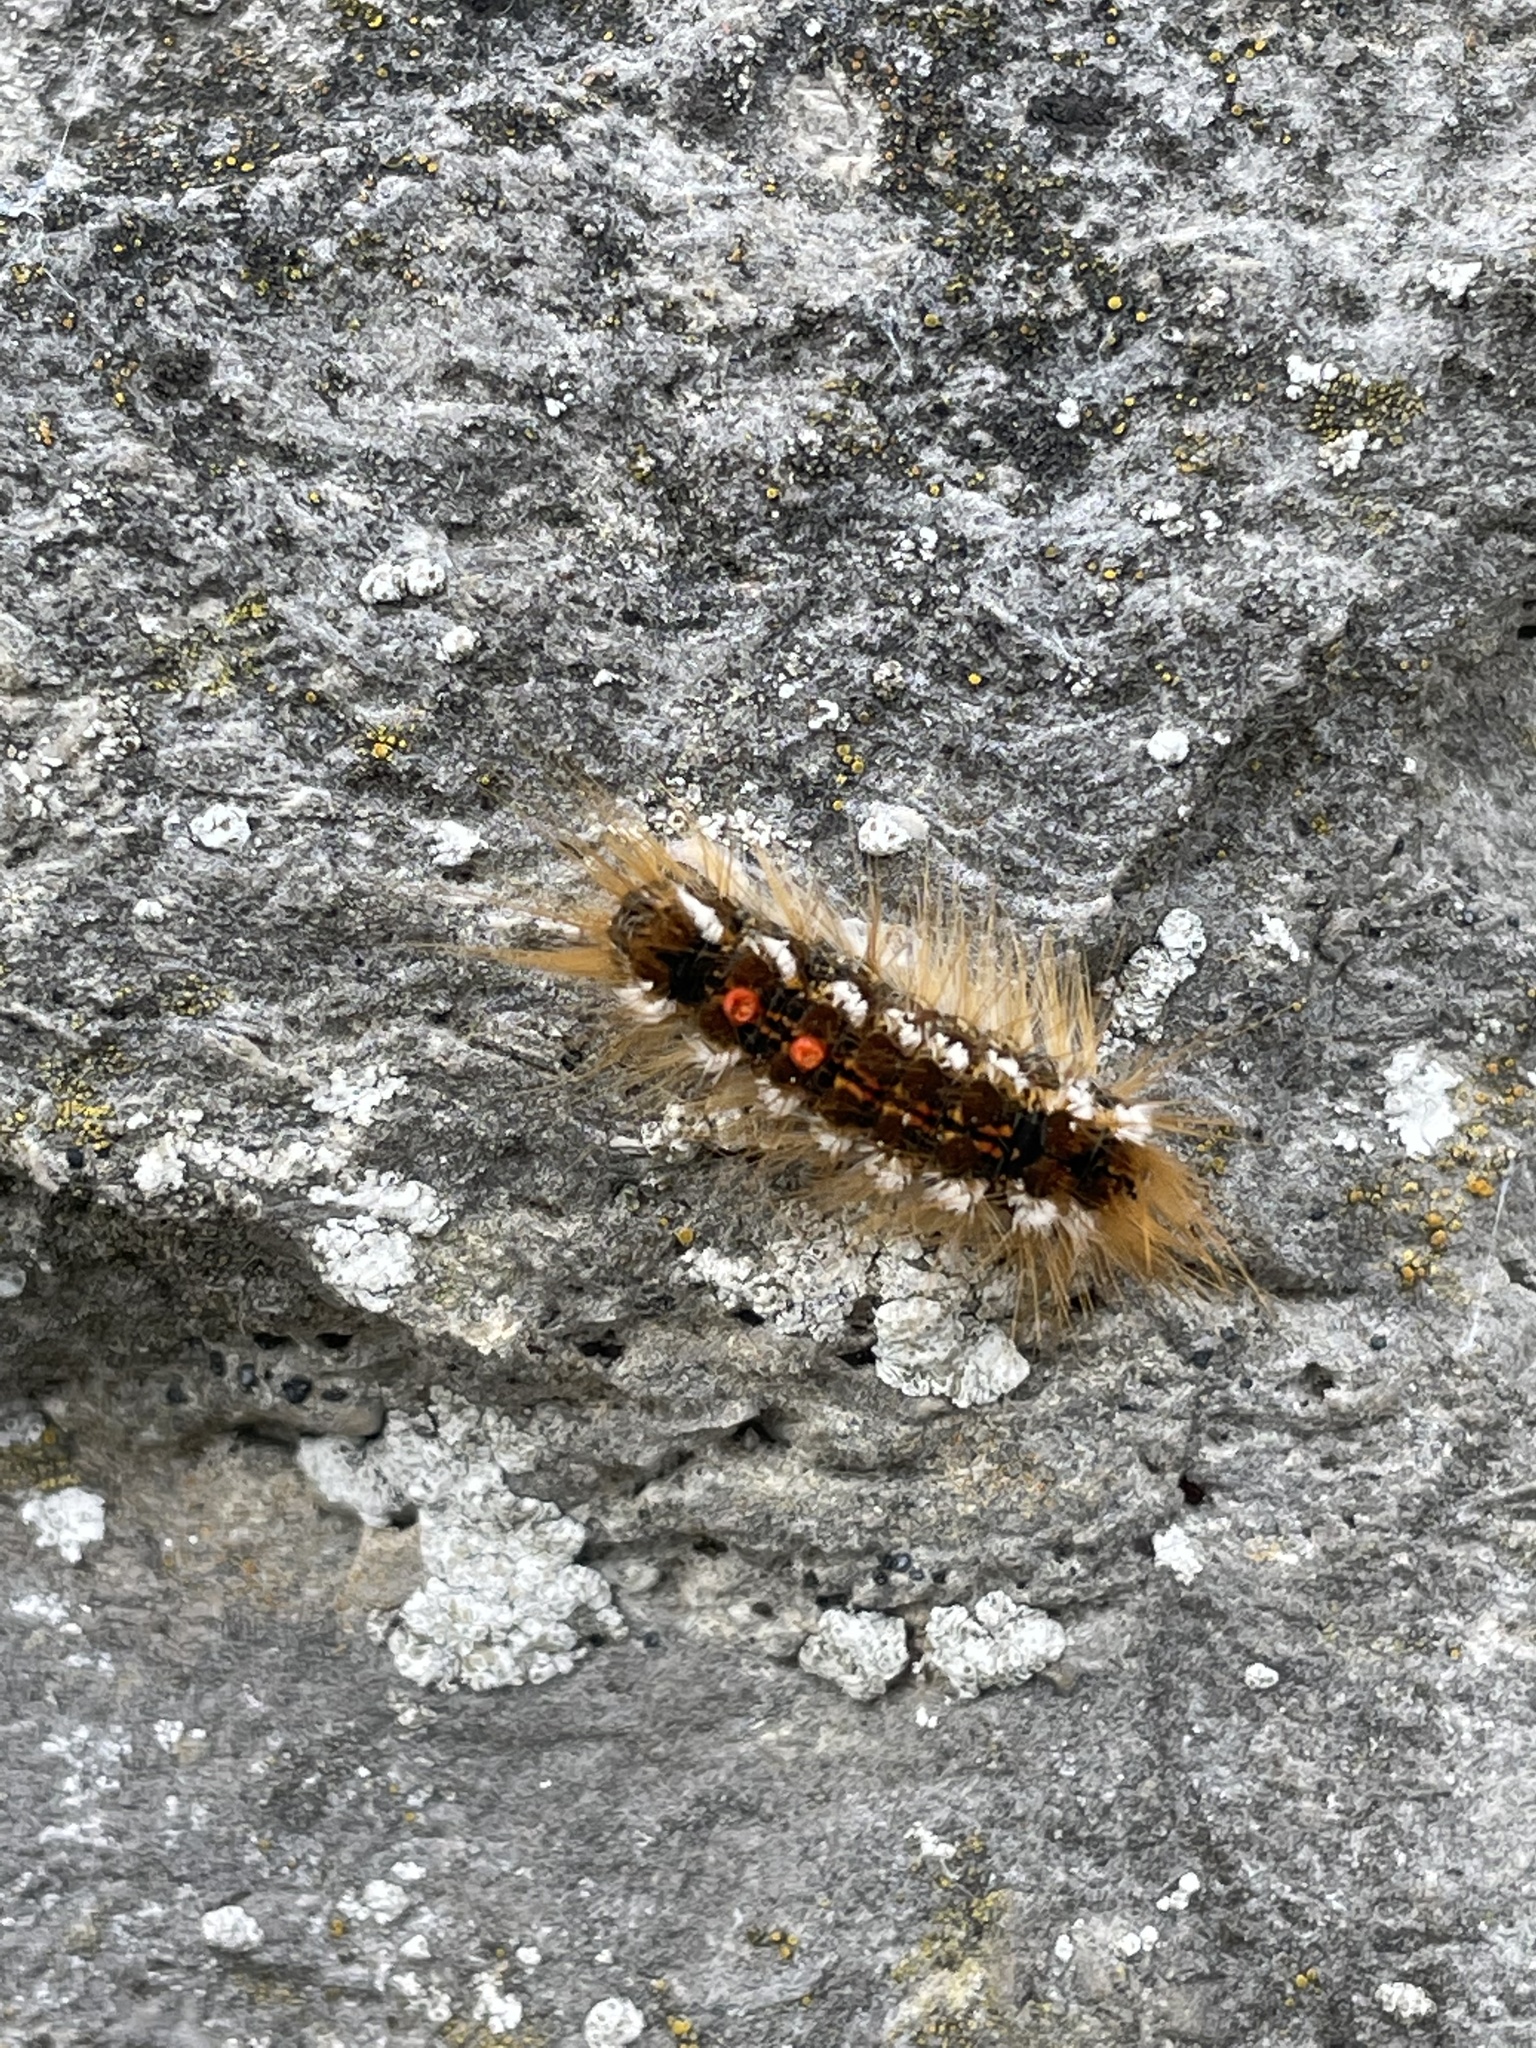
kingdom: Animalia
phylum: Arthropoda
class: Insecta
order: Lepidoptera
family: Erebidae
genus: Euproctis
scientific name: Euproctis chrysorrhoea
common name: Brown-tail
